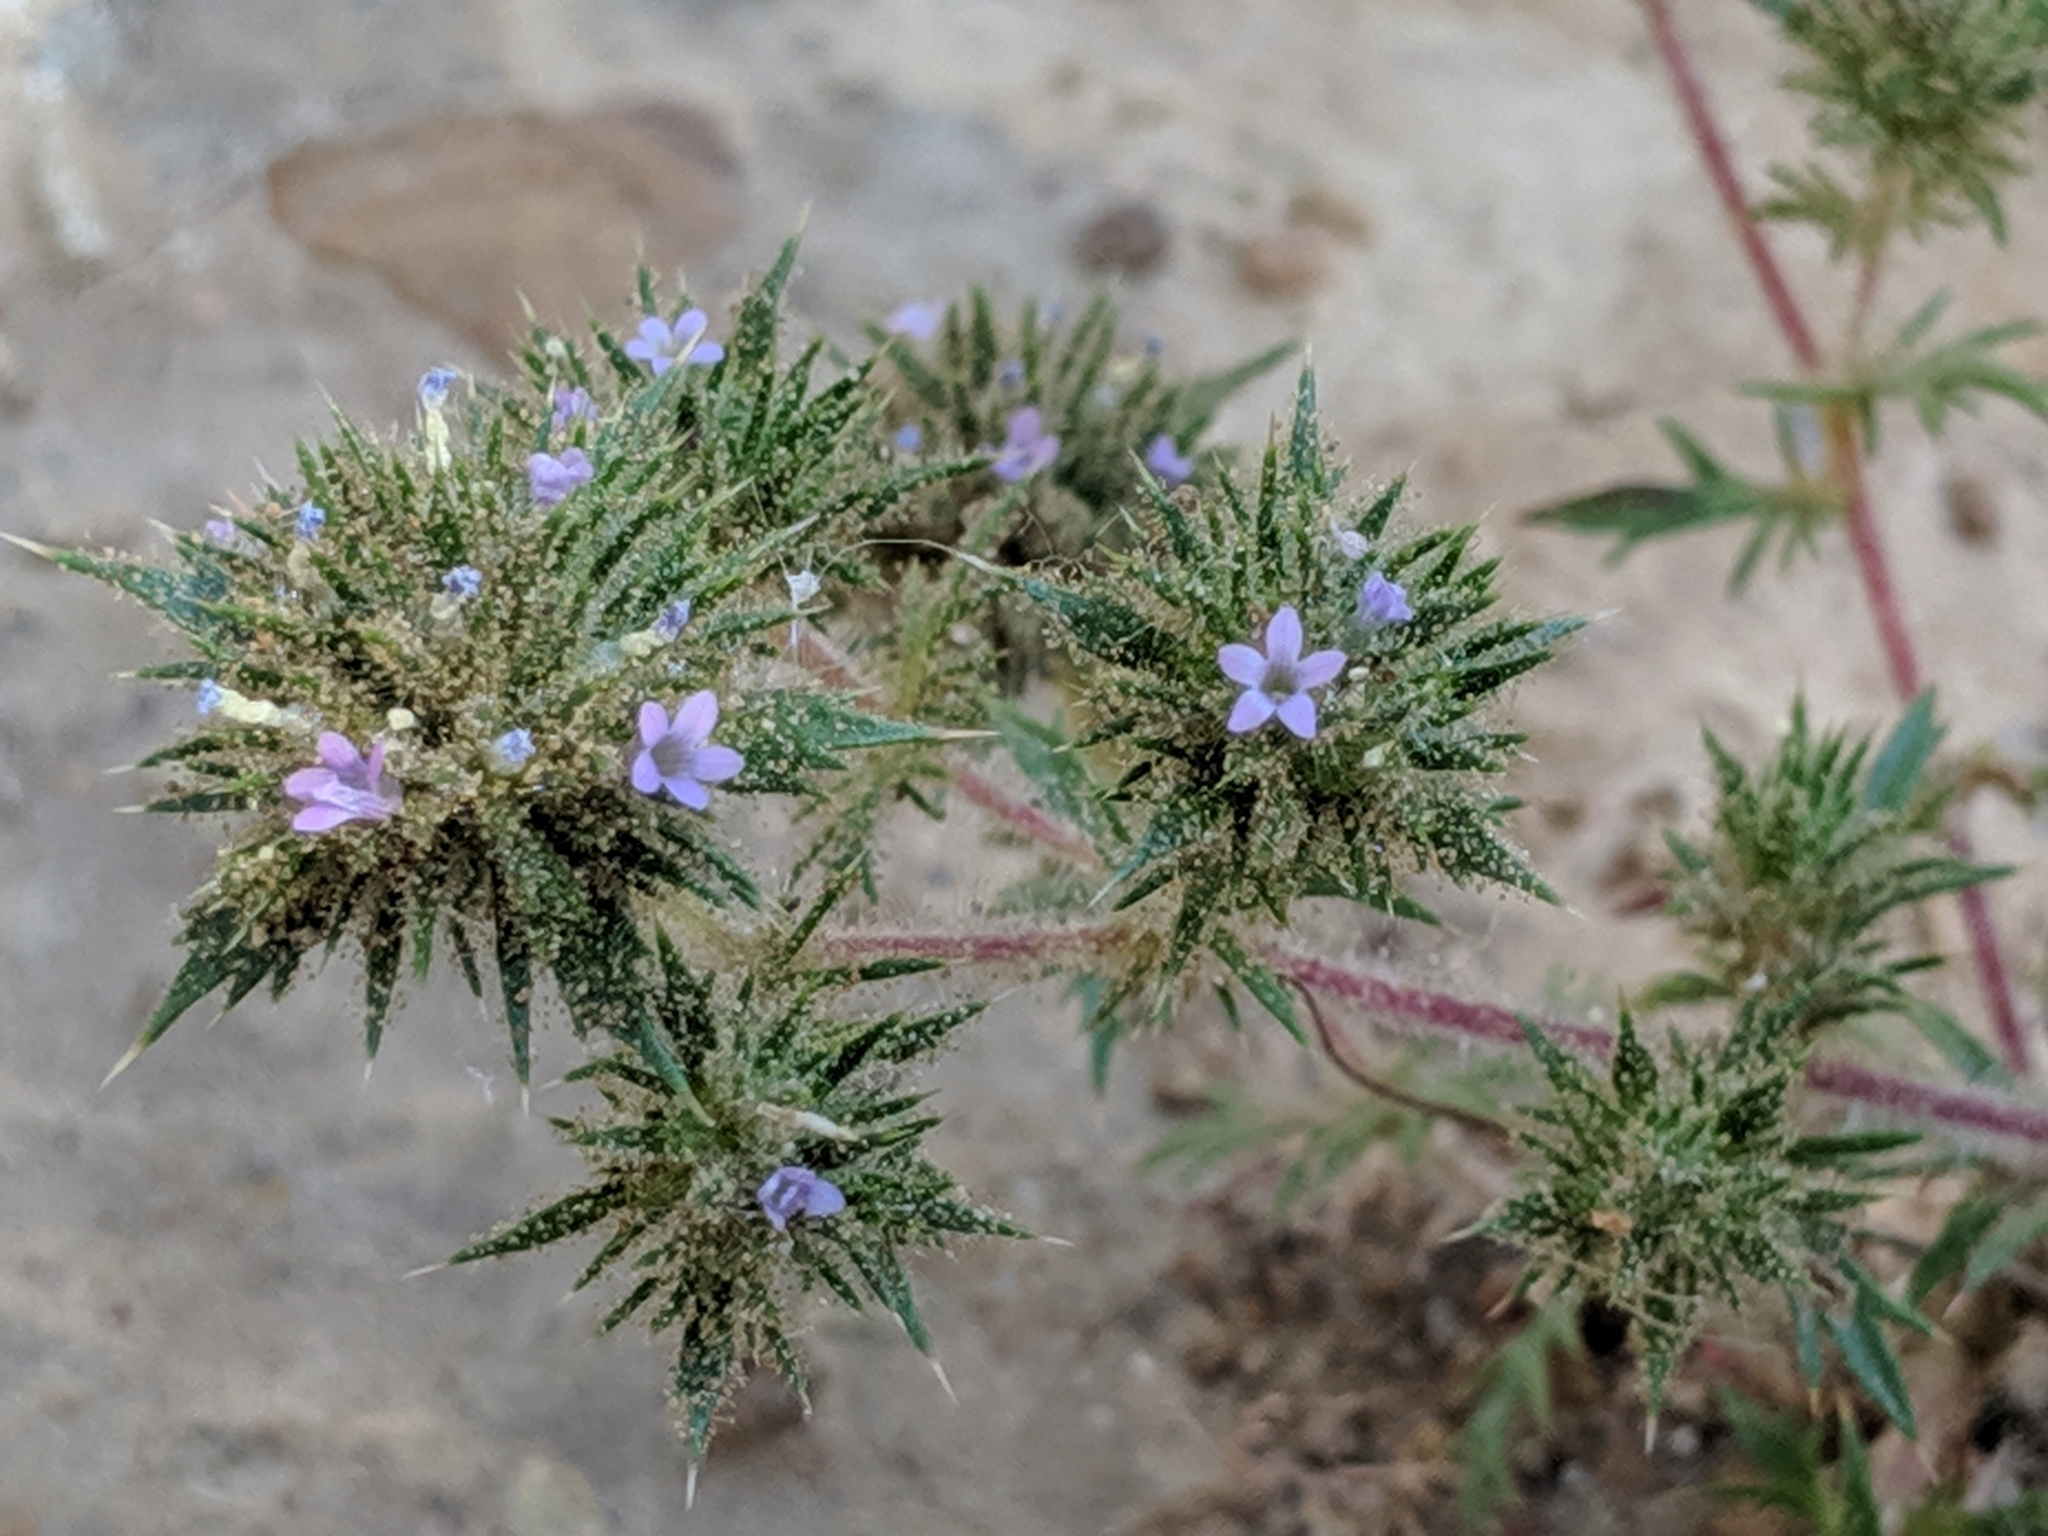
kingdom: Plantae
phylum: Tracheophyta
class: Magnoliopsida
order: Ericales
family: Polemoniaceae
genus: Navarretia
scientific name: Navarretia mellita
